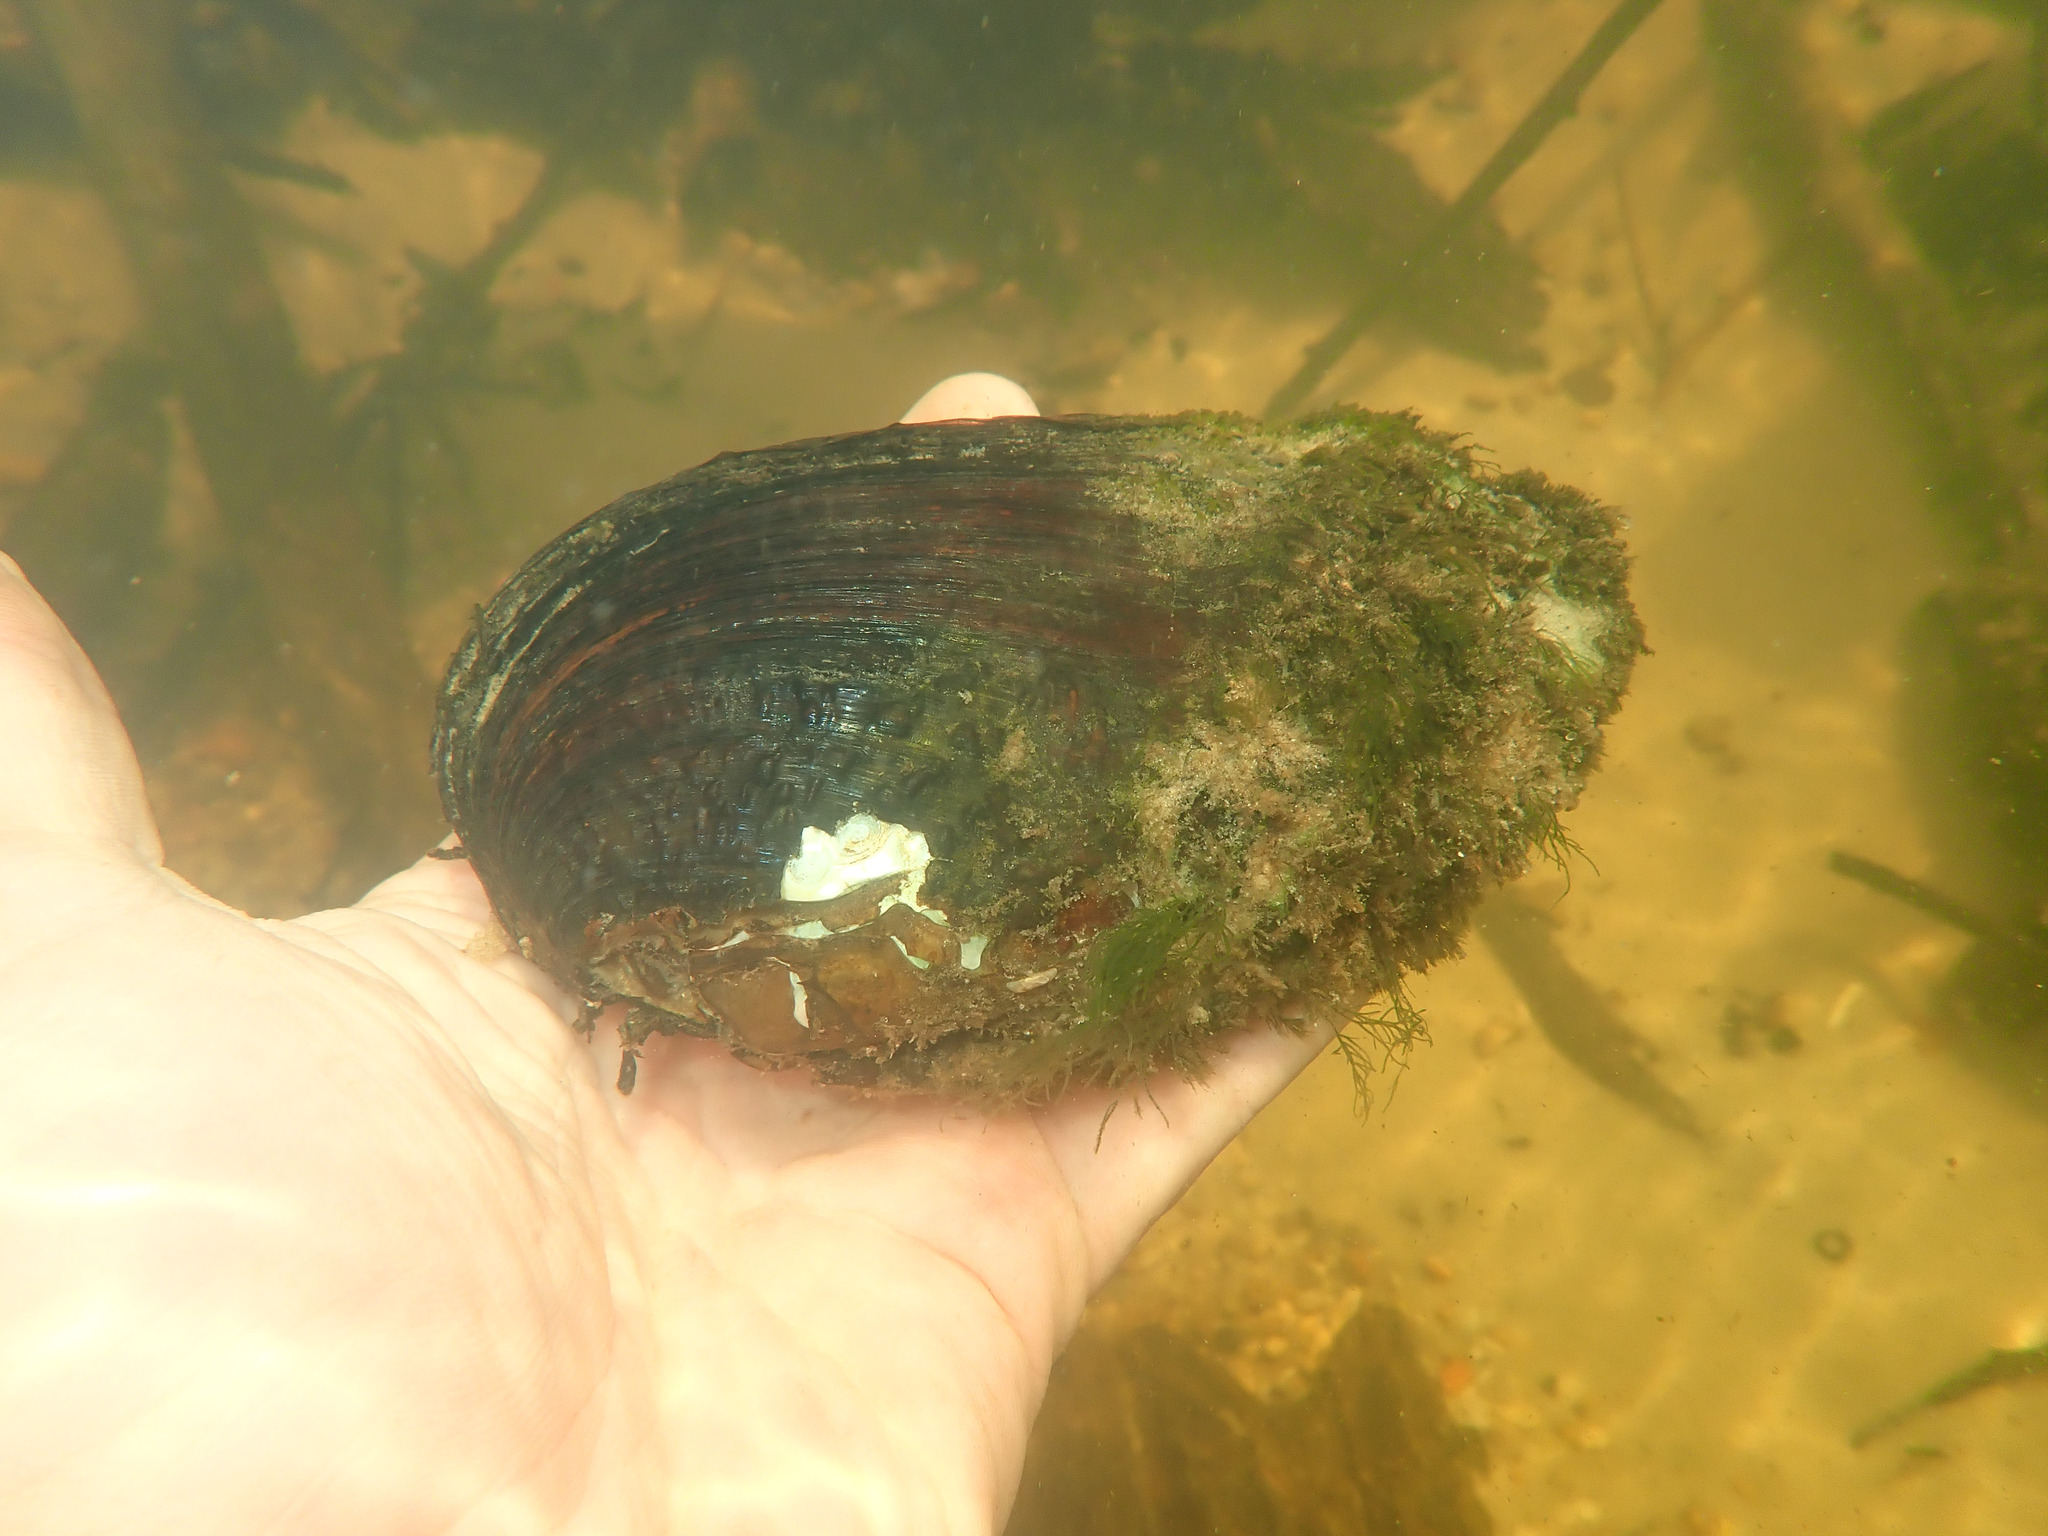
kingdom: Animalia
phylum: Mollusca
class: Bivalvia
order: Unionida
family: Unionidae
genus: Tritogonia
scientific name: Tritogonia verrucosa
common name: Pistolgrip
